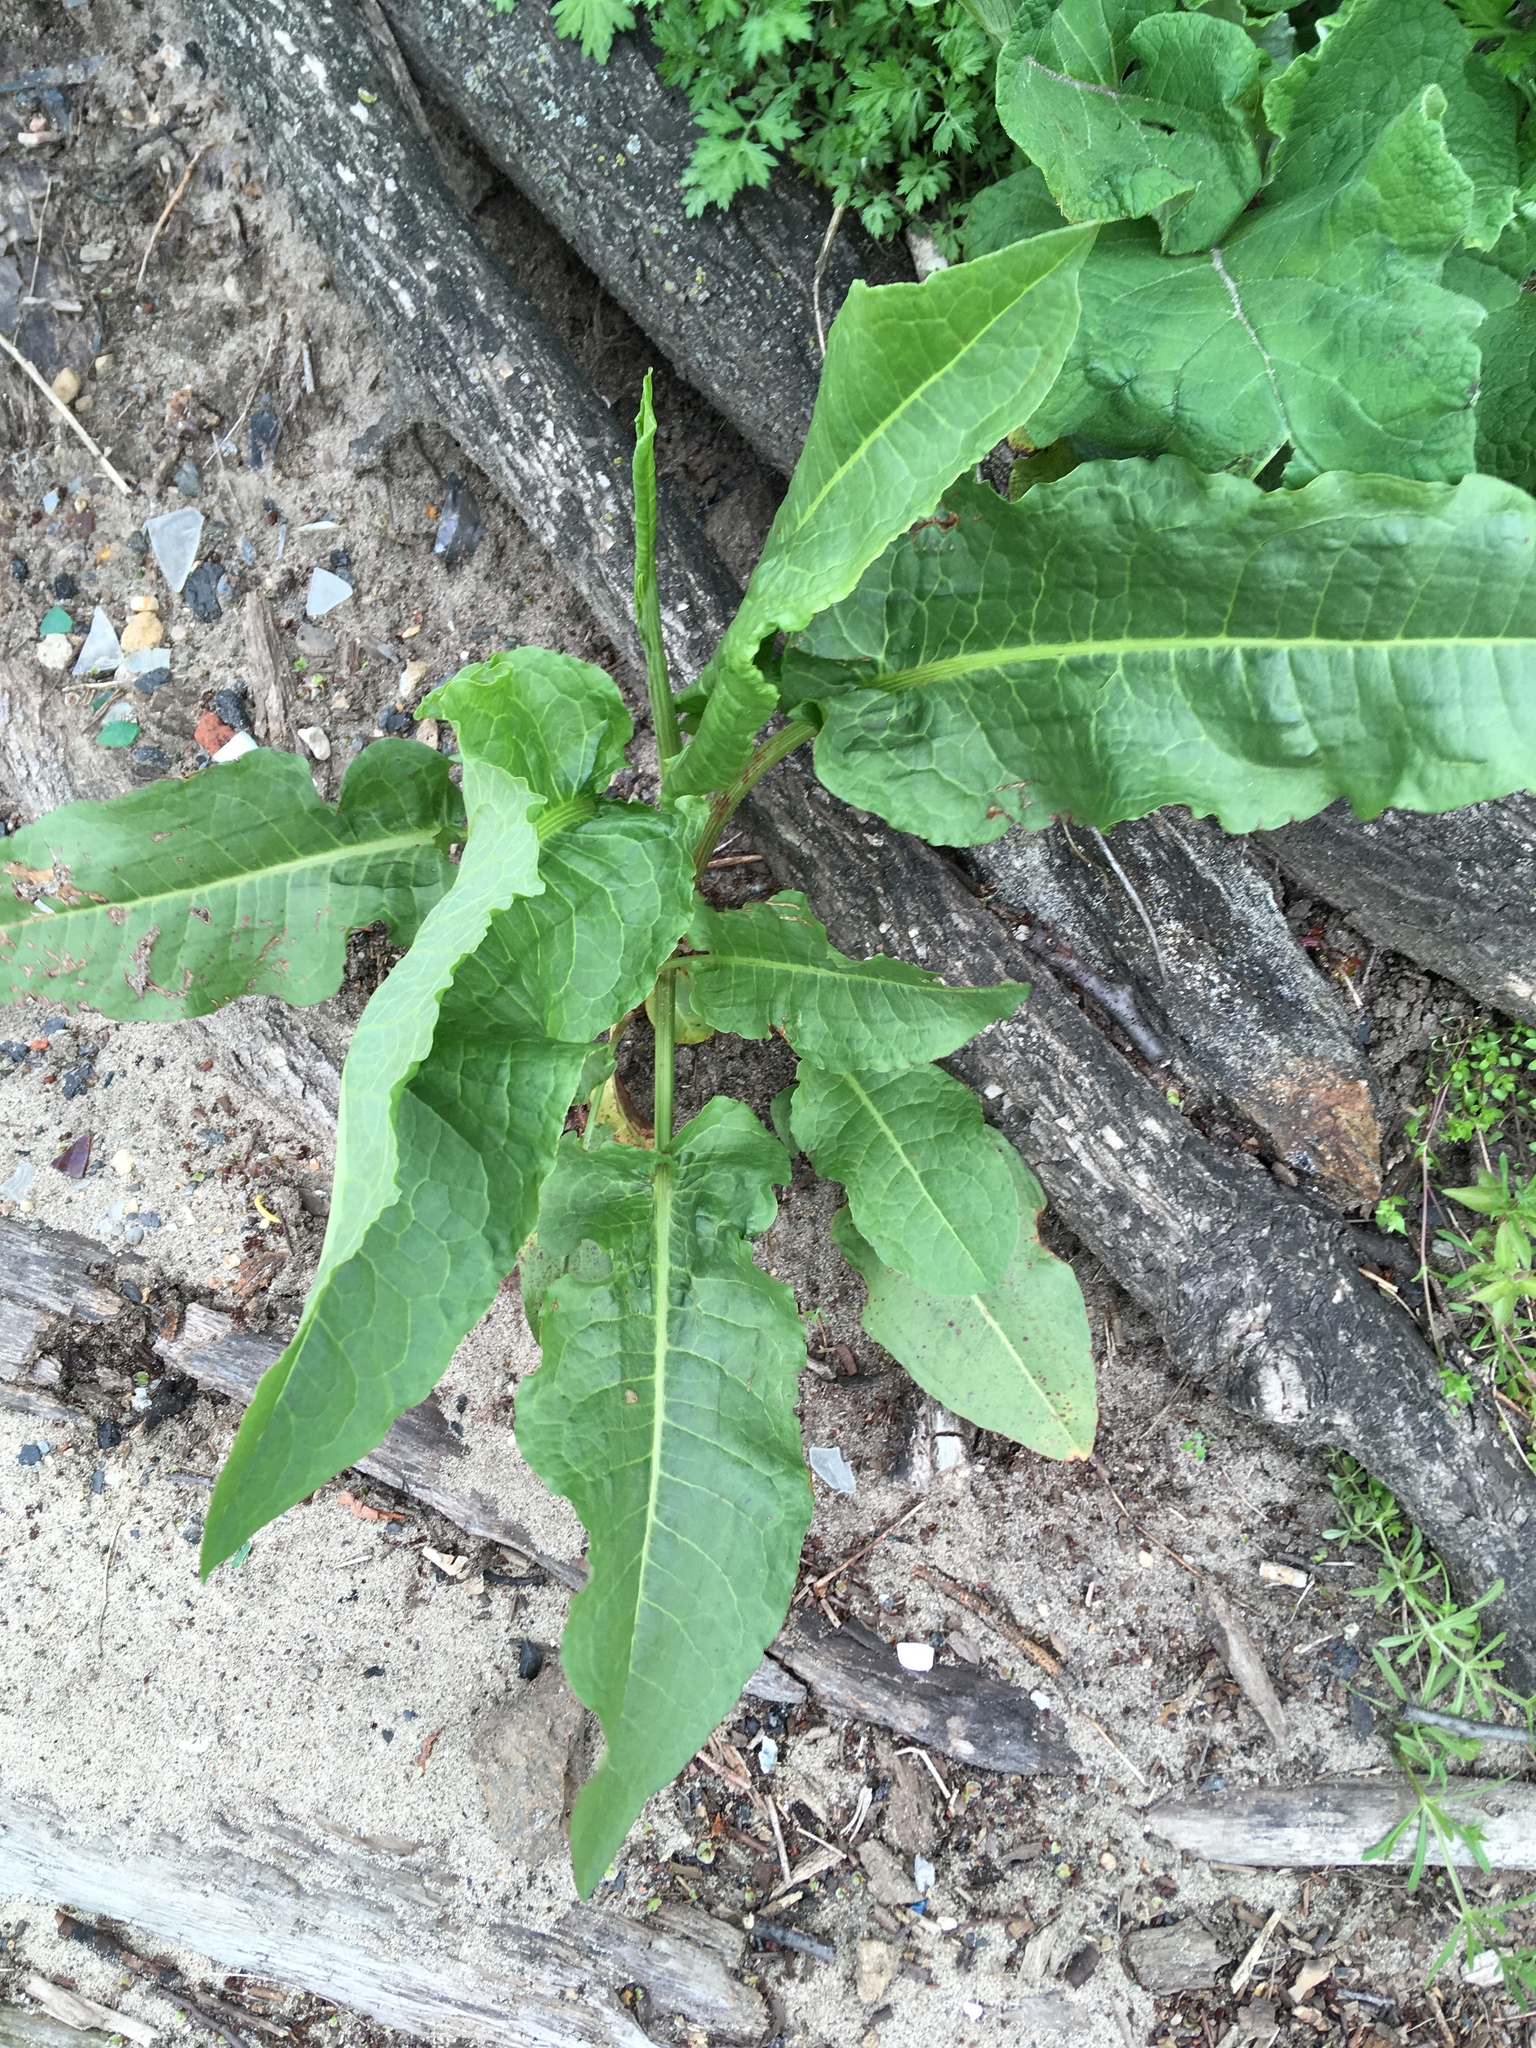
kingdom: Plantae
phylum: Tracheophyta
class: Magnoliopsida
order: Caryophyllales
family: Polygonaceae
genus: Rumex
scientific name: Rumex crispus
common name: Curled dock
